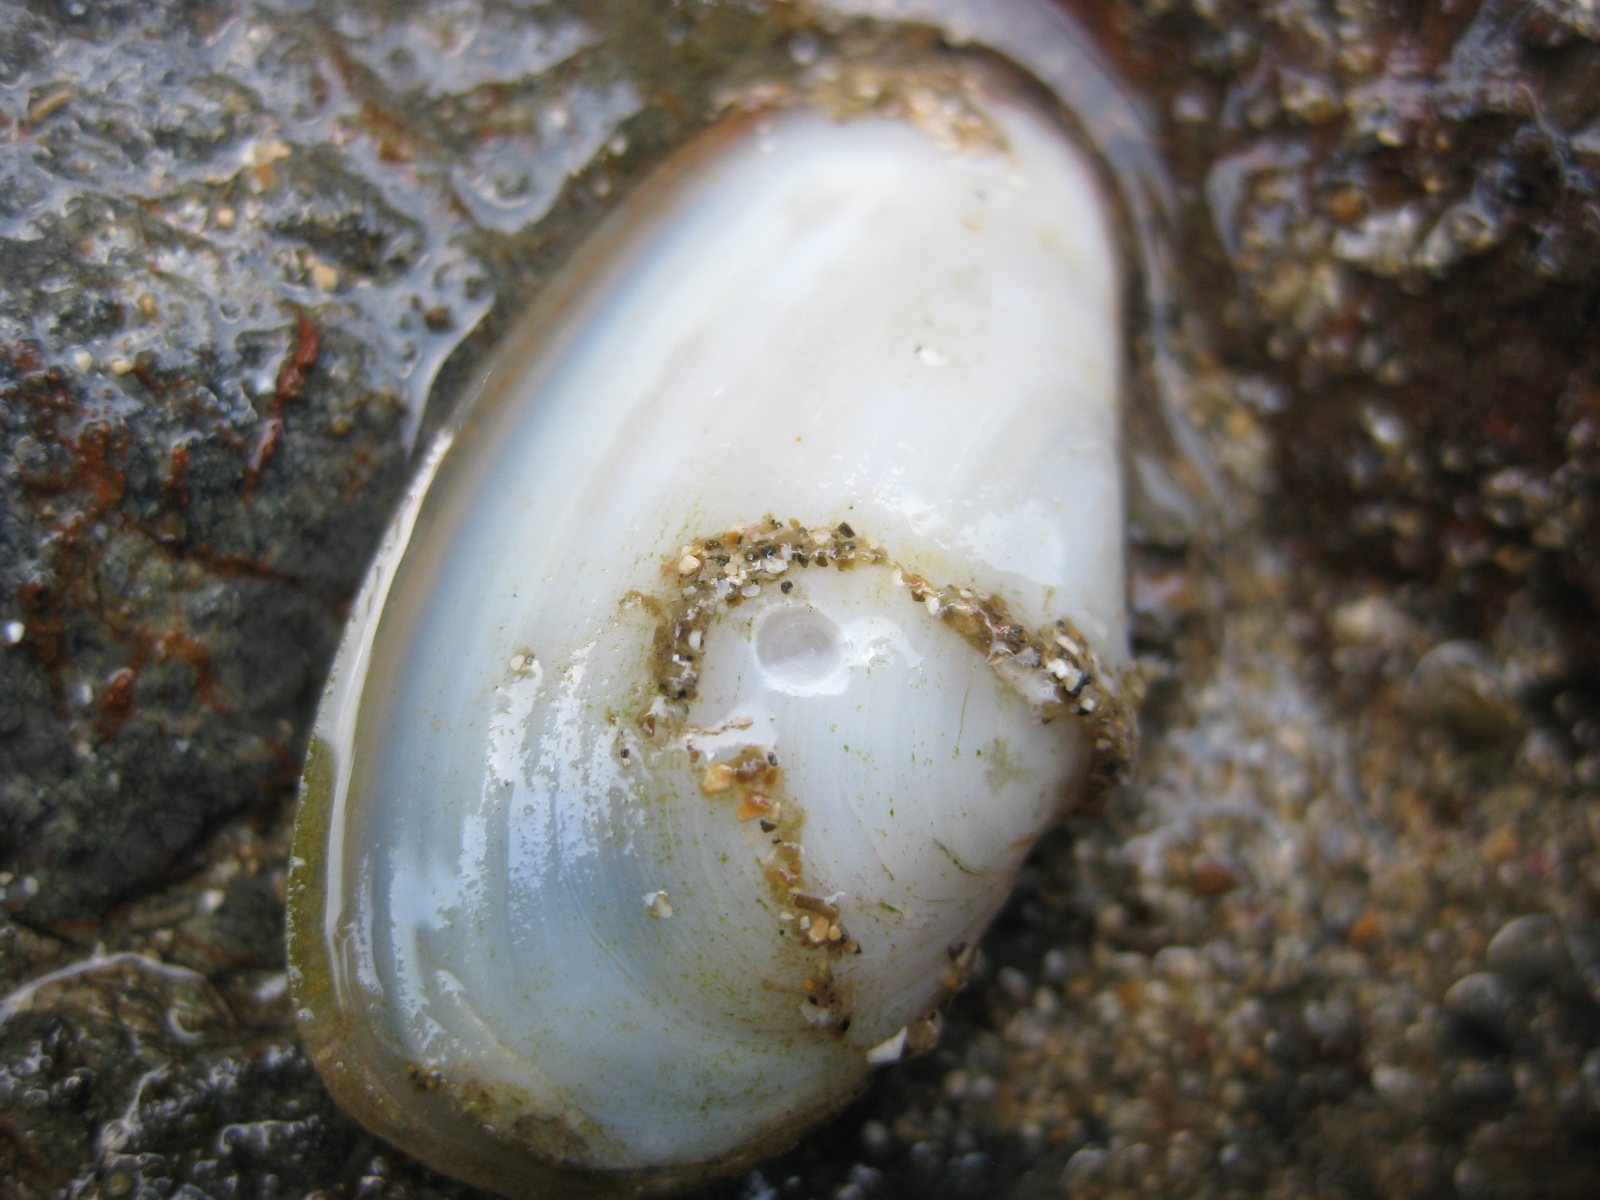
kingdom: Animalia
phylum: Mollusca
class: Bivalvia
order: Venerida
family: Mesodesmatidae
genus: Paphies
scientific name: Paphies australis
